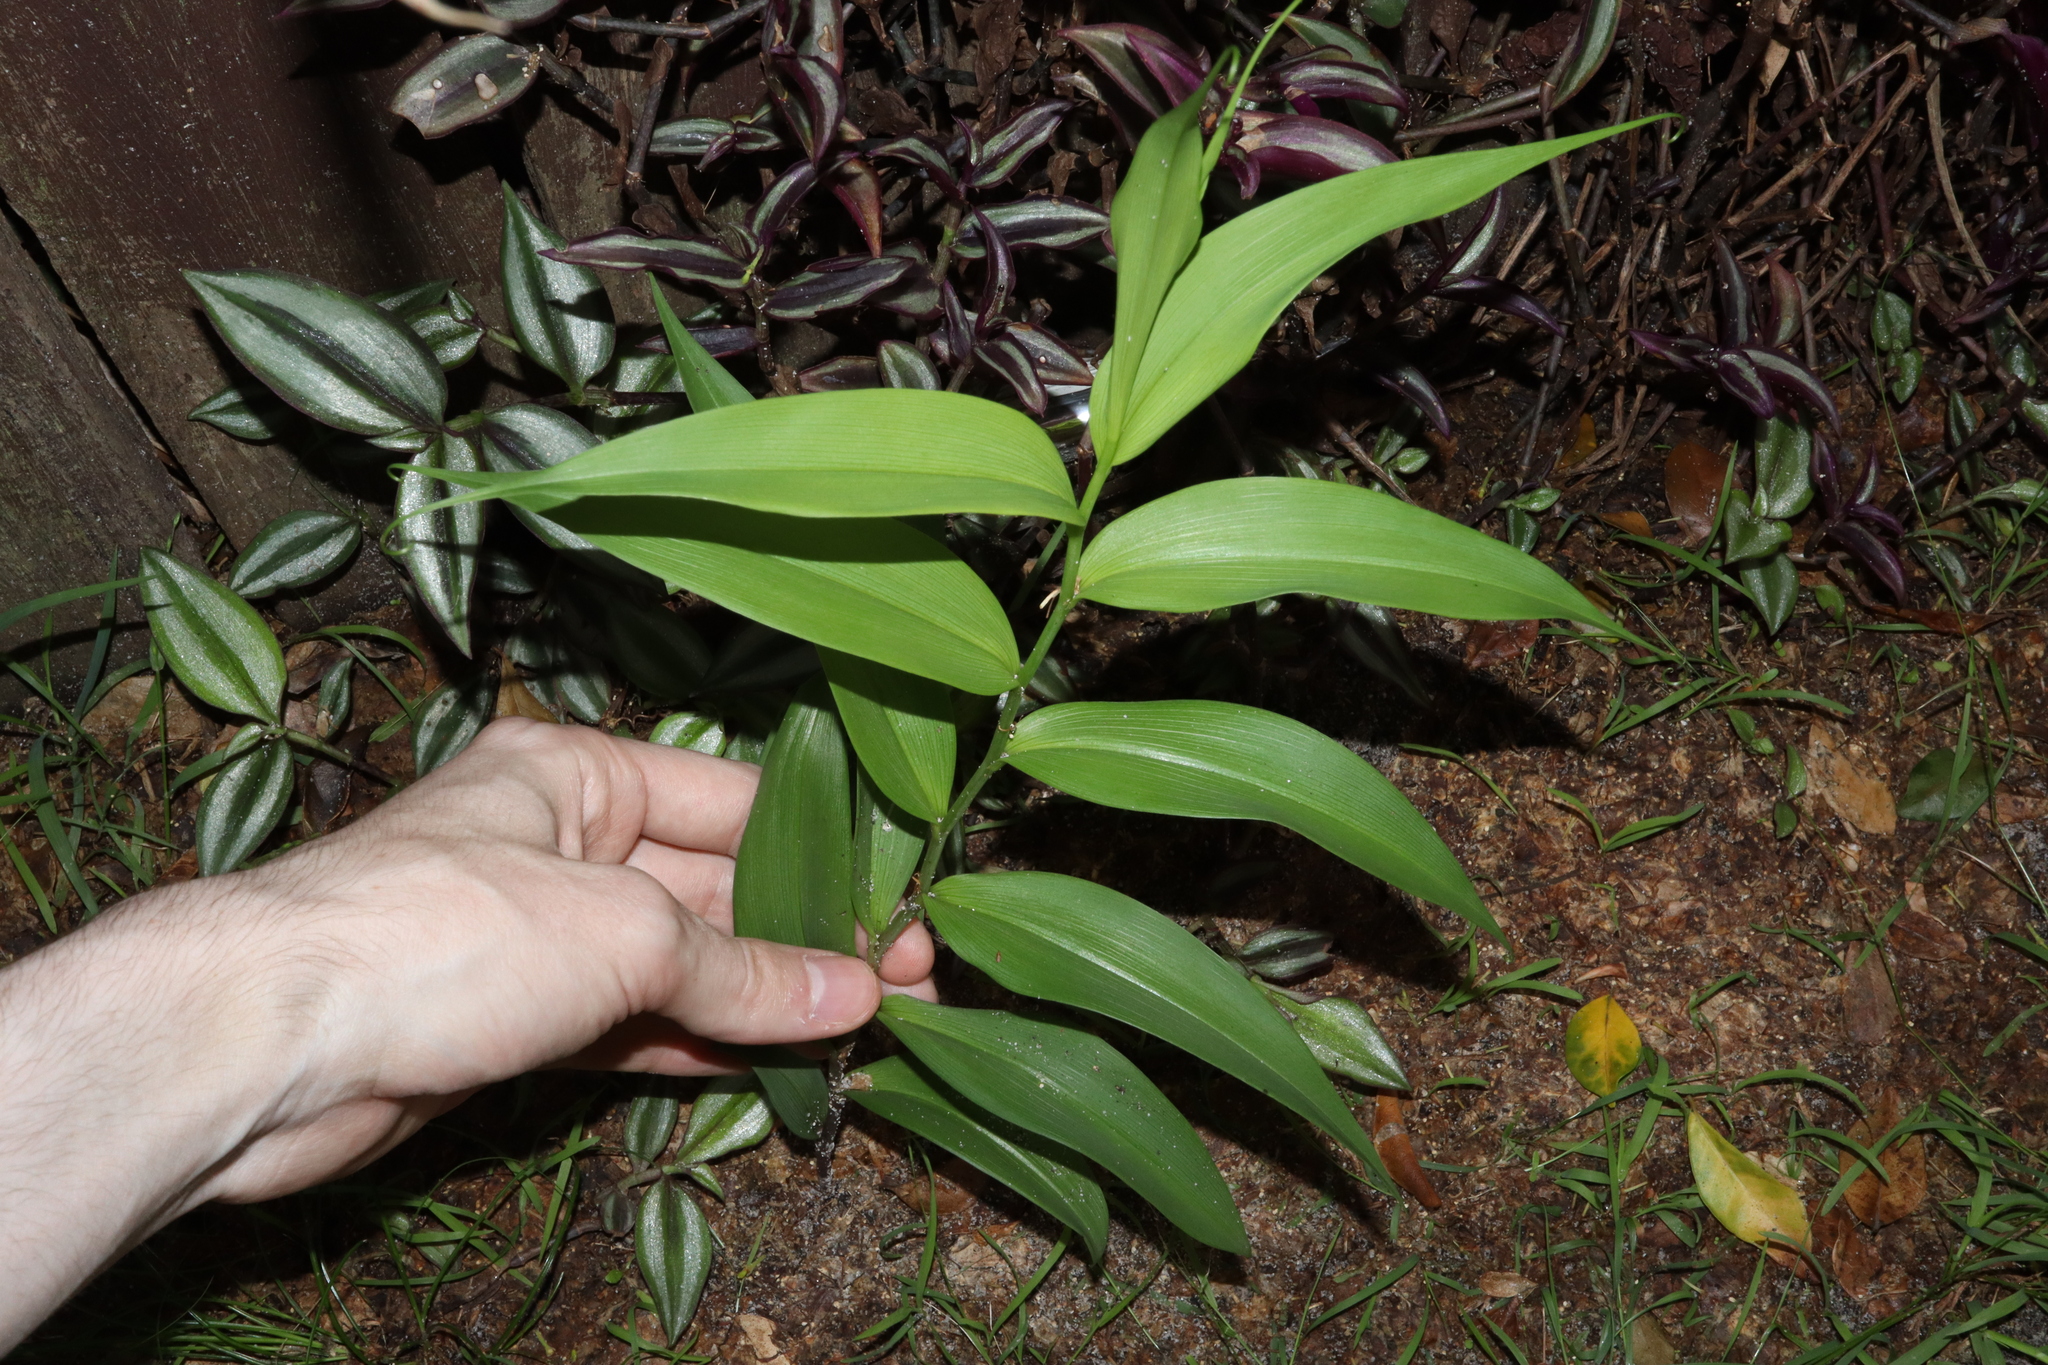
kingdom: Plantae
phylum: Tracheophyta
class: Liliopsida
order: Liliales
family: Colchicaceae
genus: Gloriosa
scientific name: Gloriosa superba
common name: Flame lily
